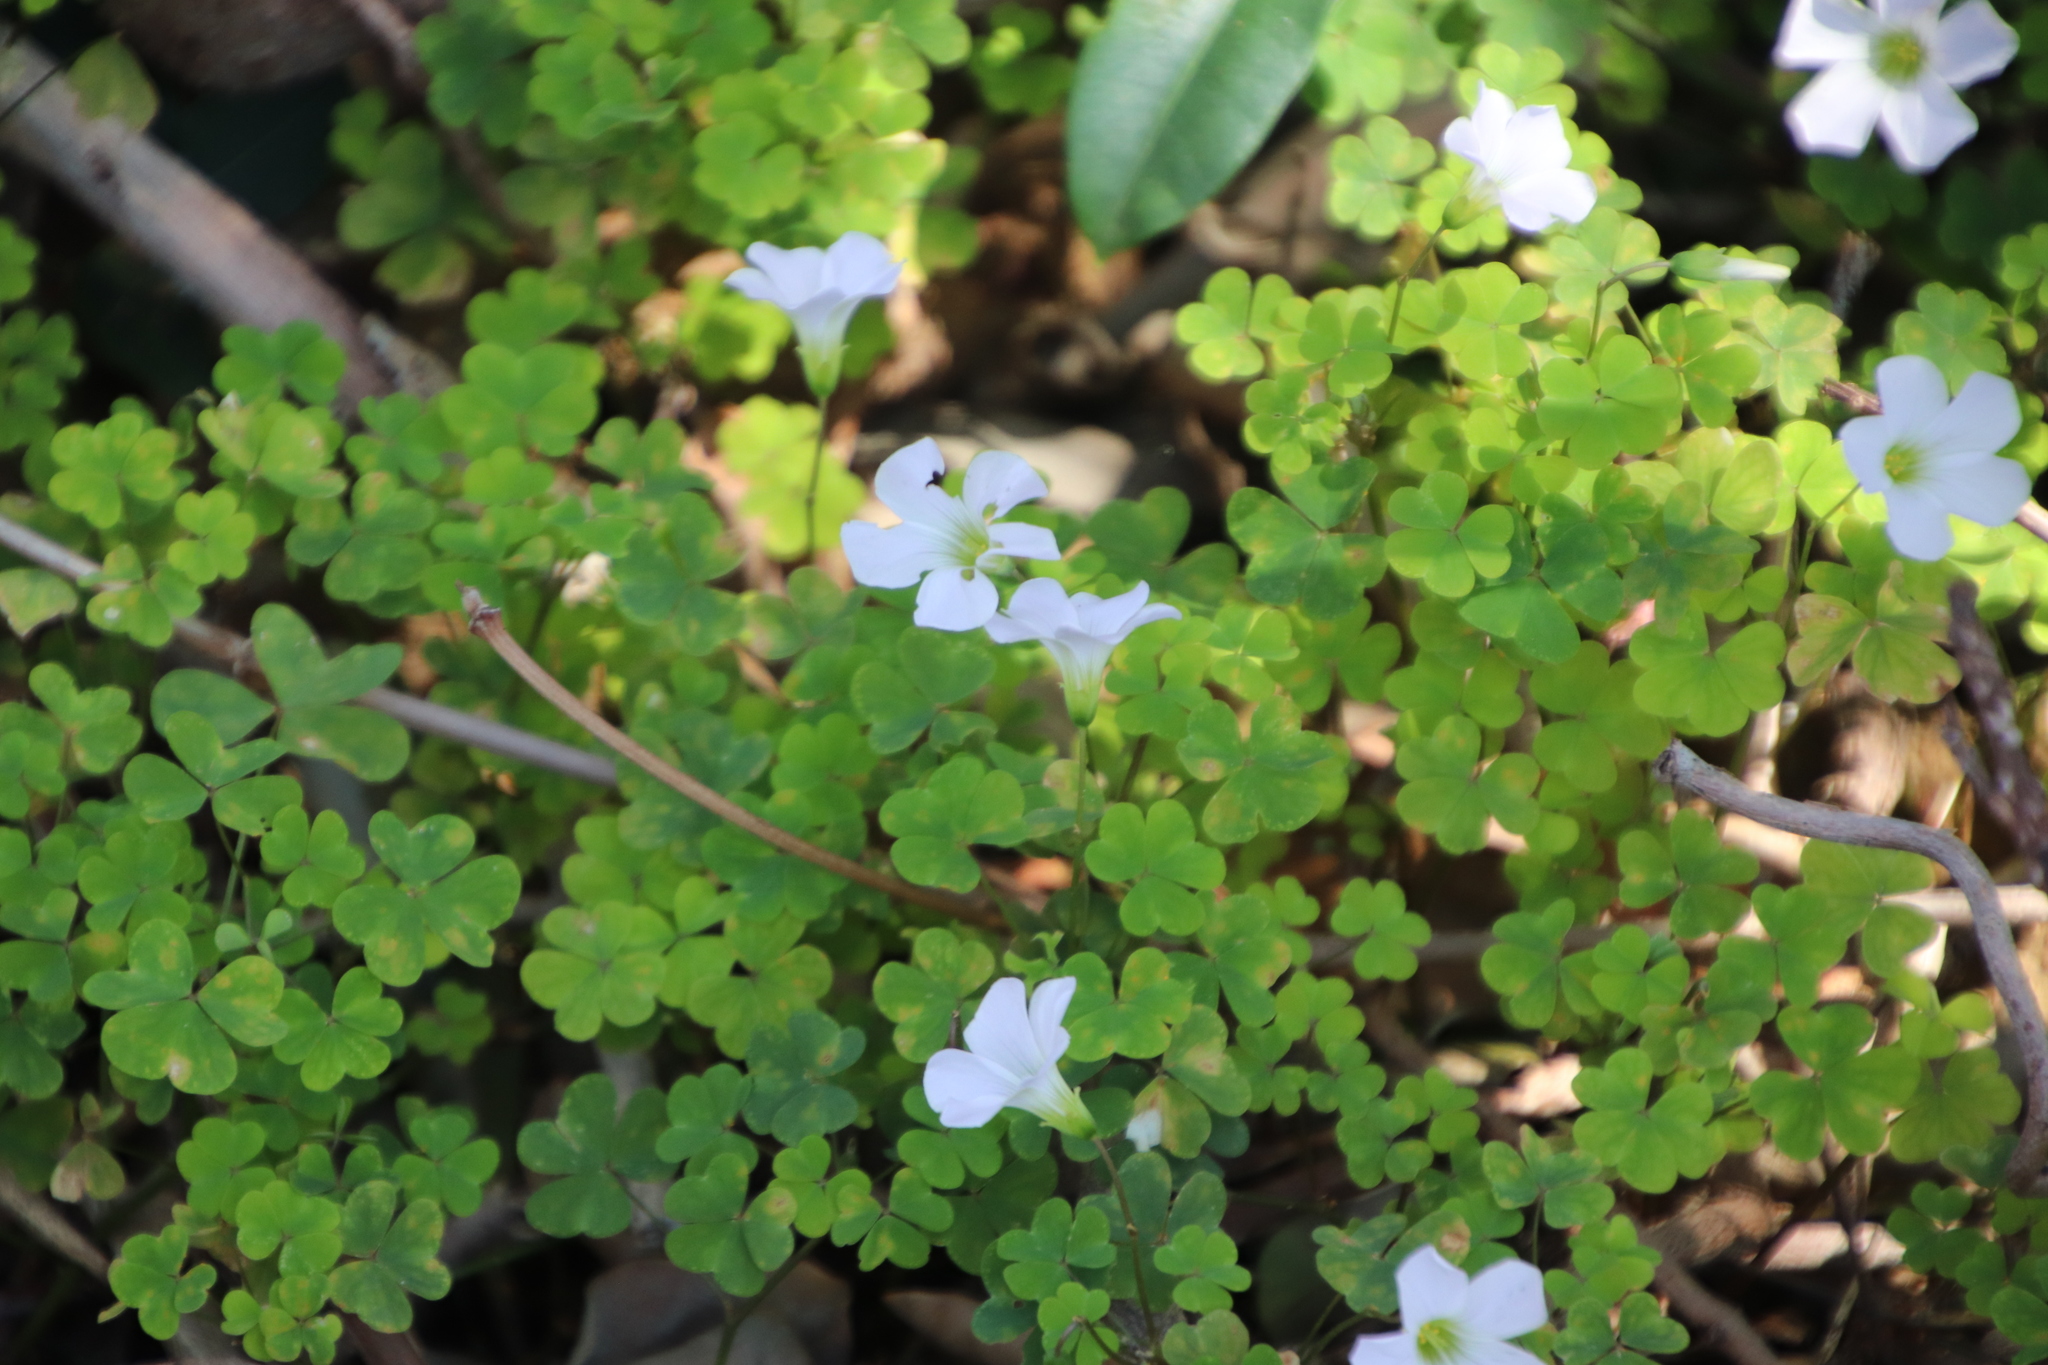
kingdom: Plantae
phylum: Tracheophyta
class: Magnoliopsida
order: Oxalidales
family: Oxalidaceae
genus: Oxalis
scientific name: Oxalis incarnata
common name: Pale pink-sorrel
